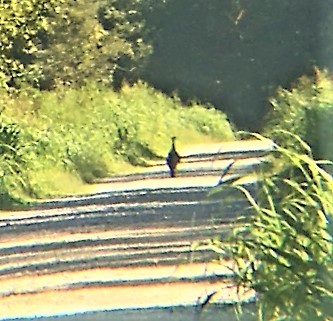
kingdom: Animalia
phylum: Chordata
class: Aves
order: Galliformes
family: Phasianidae
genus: Meleagris
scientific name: Meleagris gallopavo
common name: Wild turkey
